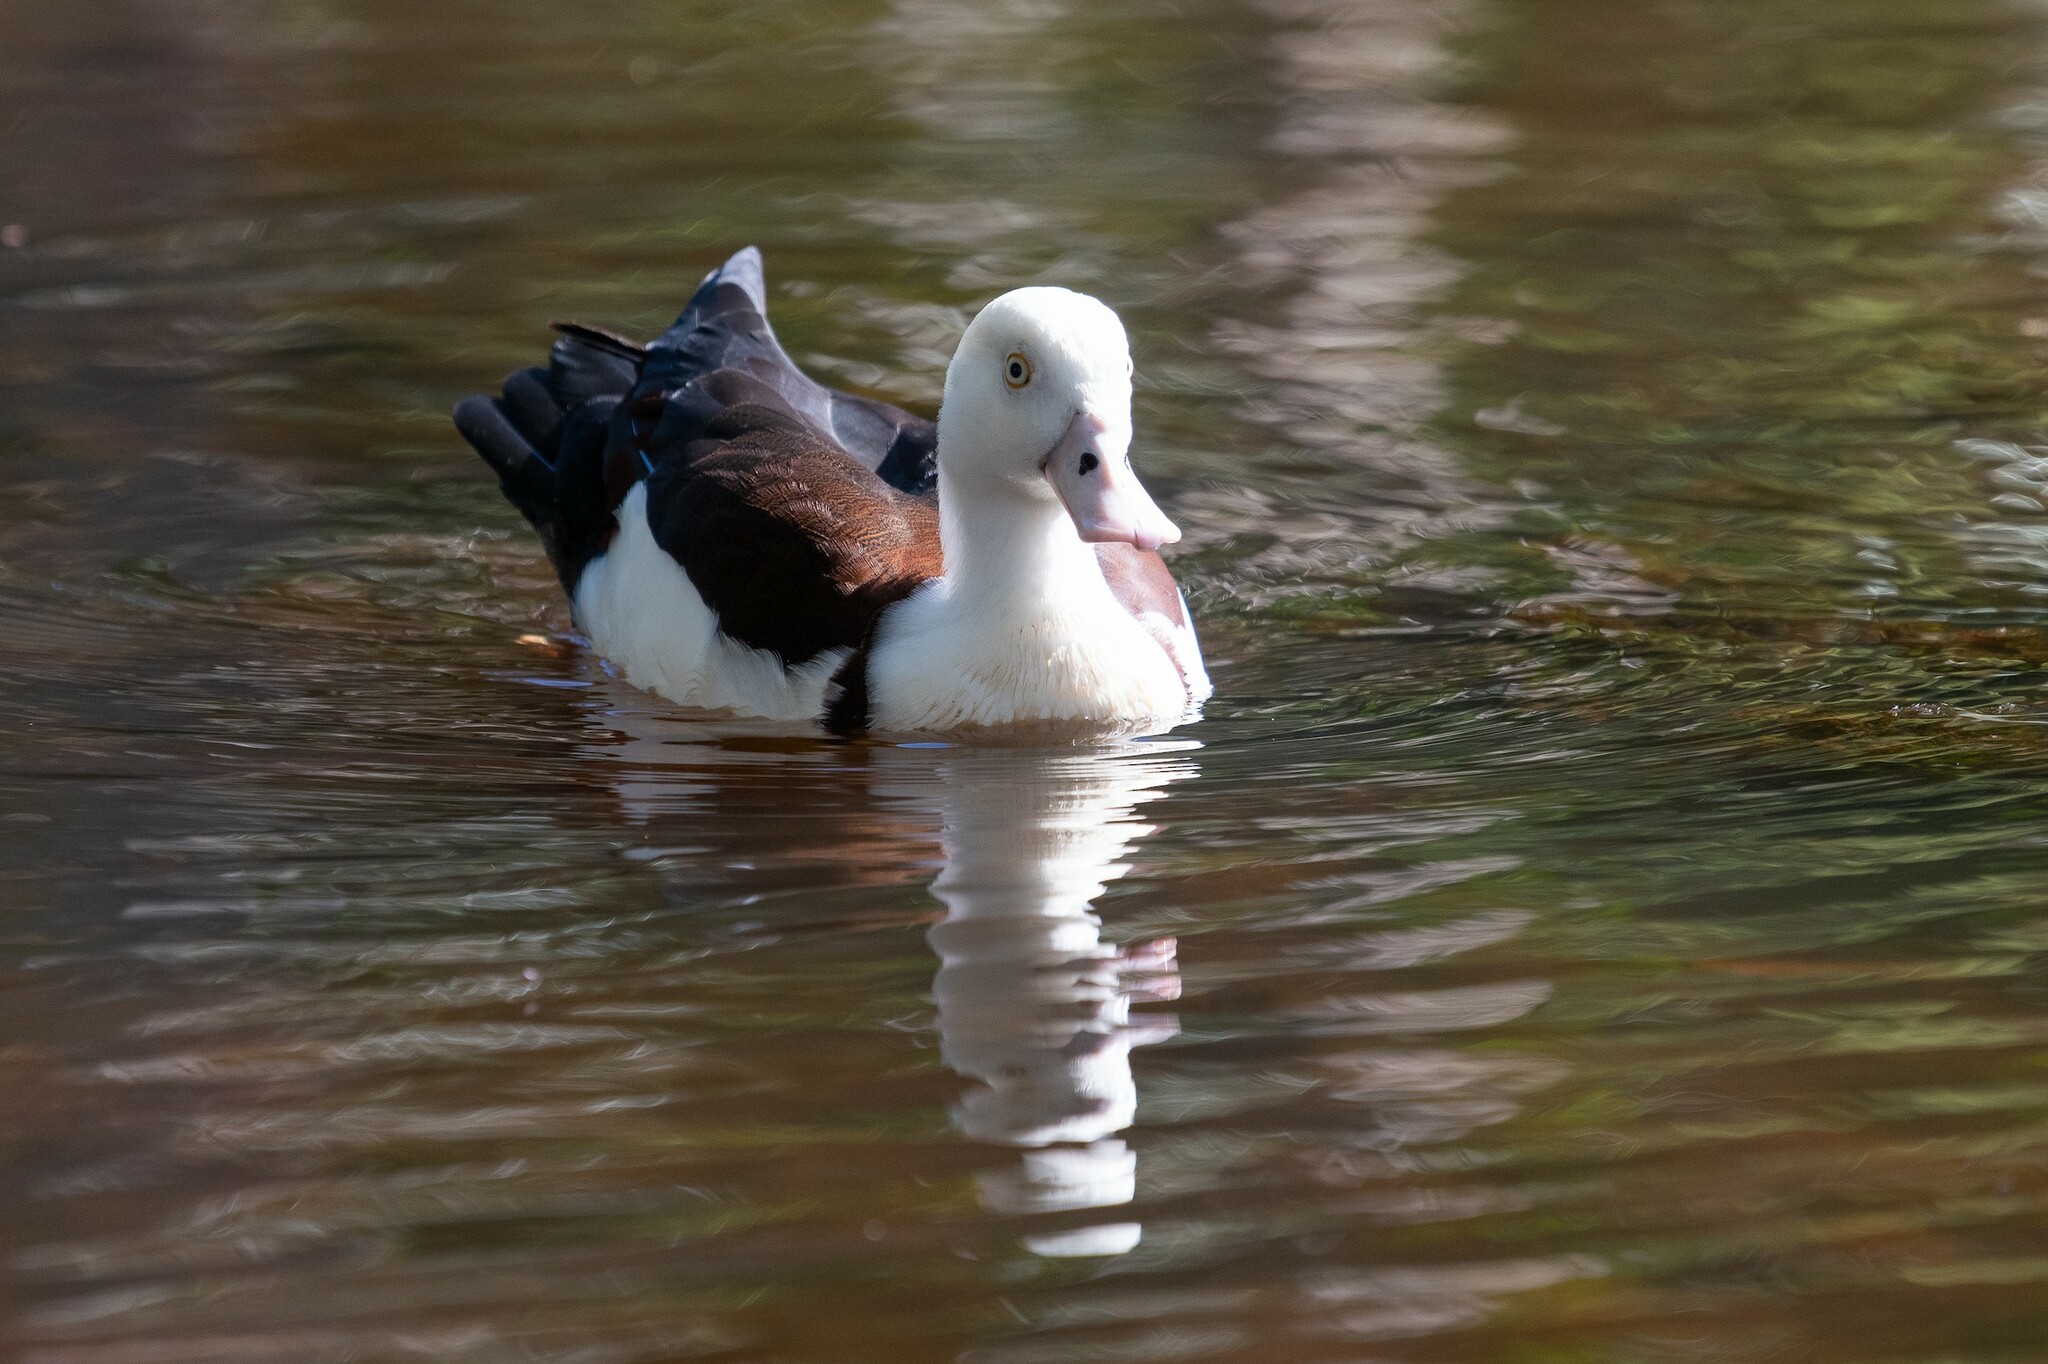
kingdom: Animalia
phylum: Chordata
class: Aves
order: Anseriformes
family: Anatidae
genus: Radjah
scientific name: Radjah radjah
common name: Radjah shelduck
